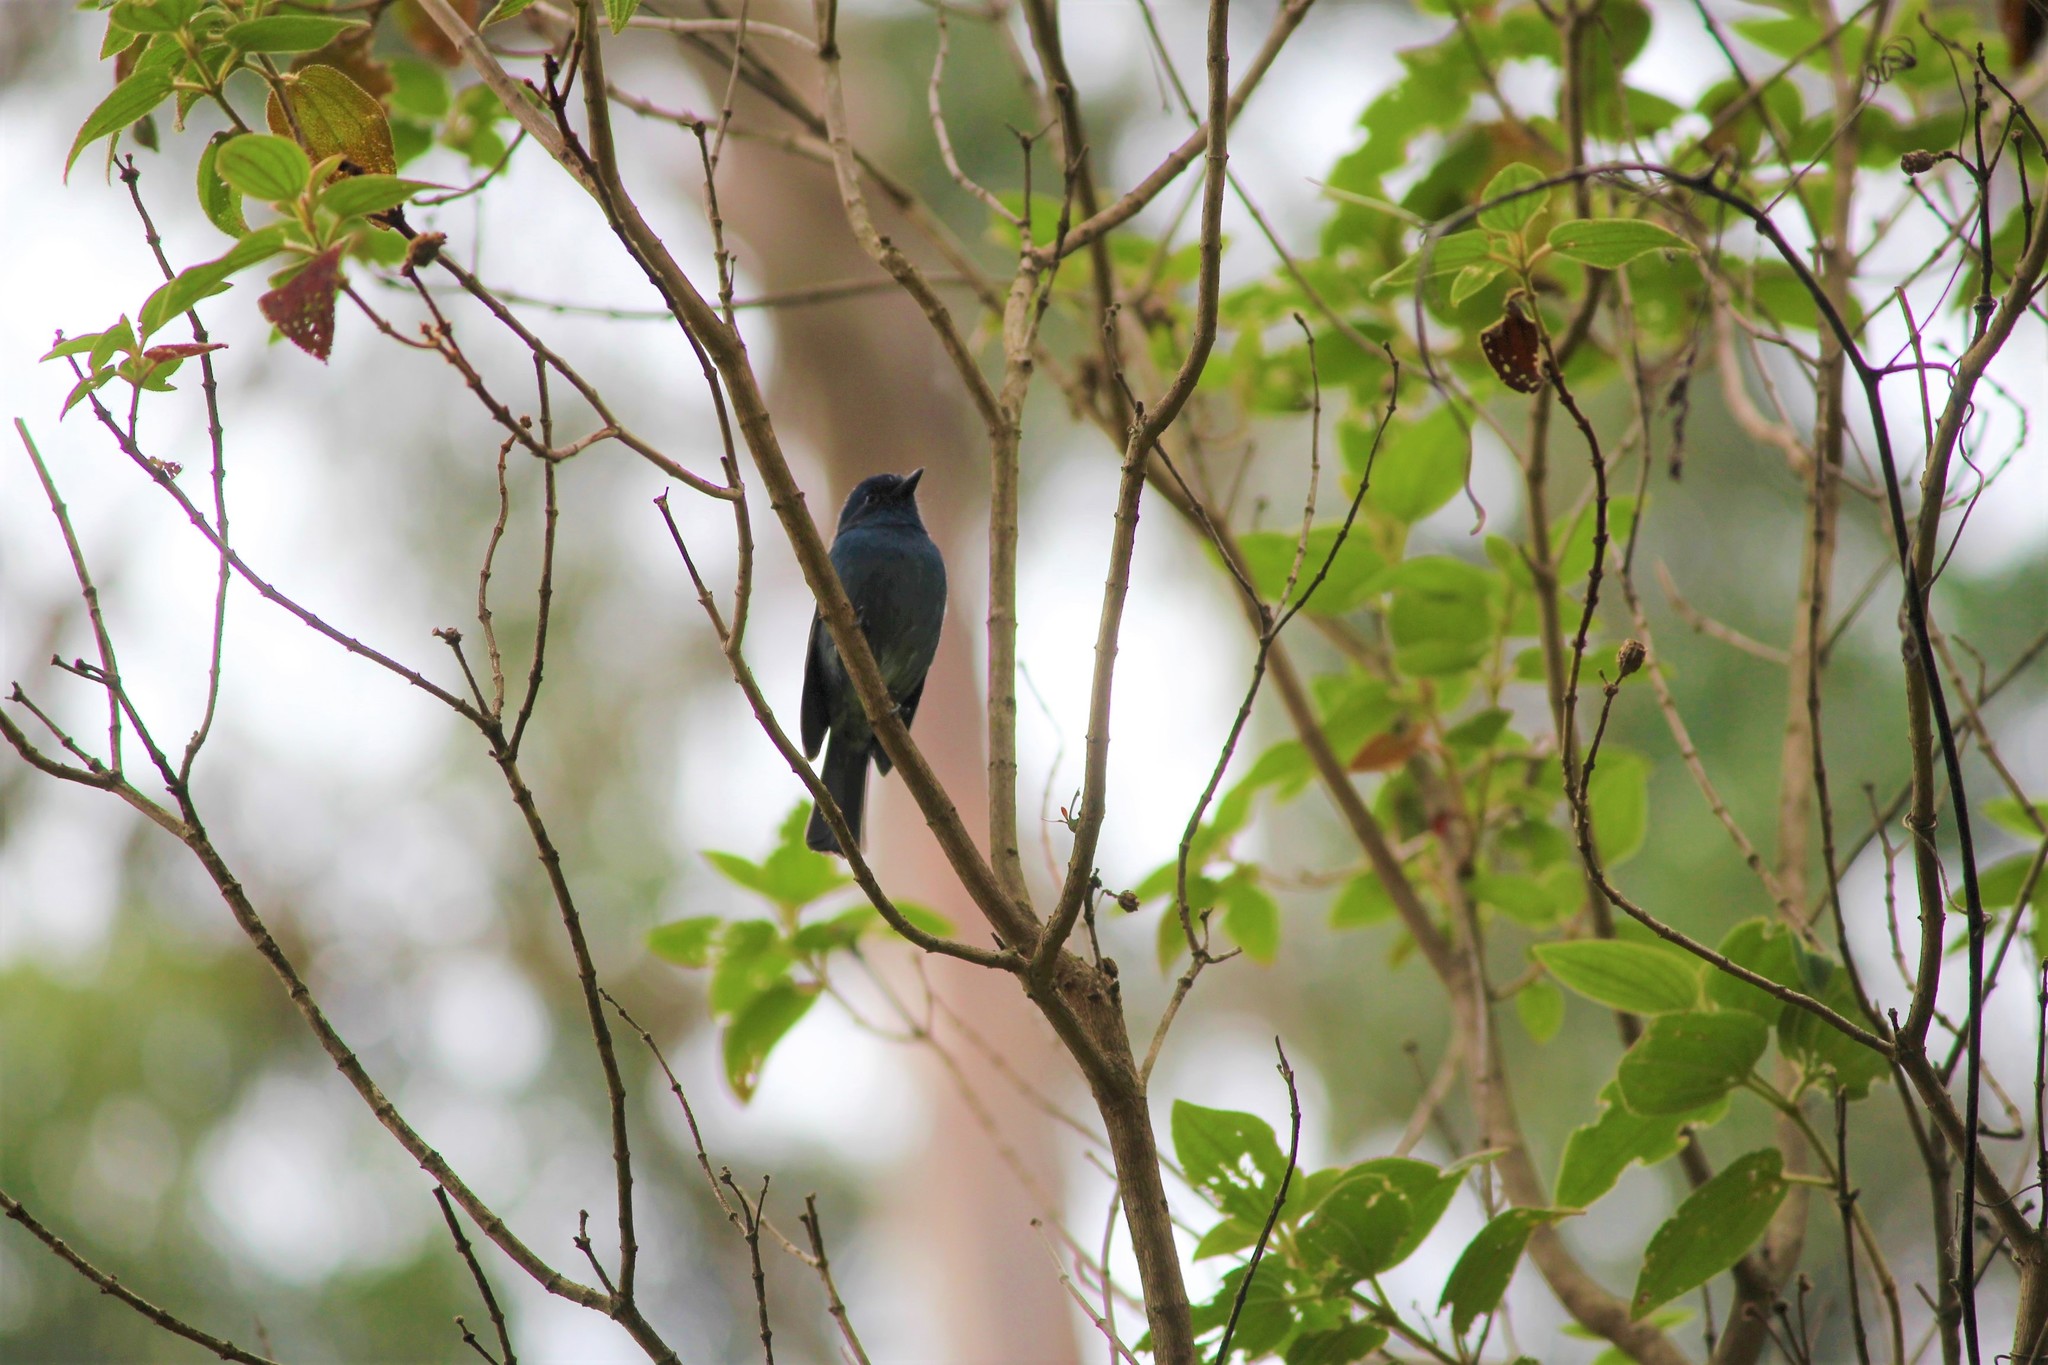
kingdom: Animalia
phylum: Chordata
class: Aves
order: Passeriformes
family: Muscicapidae
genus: Eumyias
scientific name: Eumyias albicaudatus
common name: Nilgiri flycatcher
